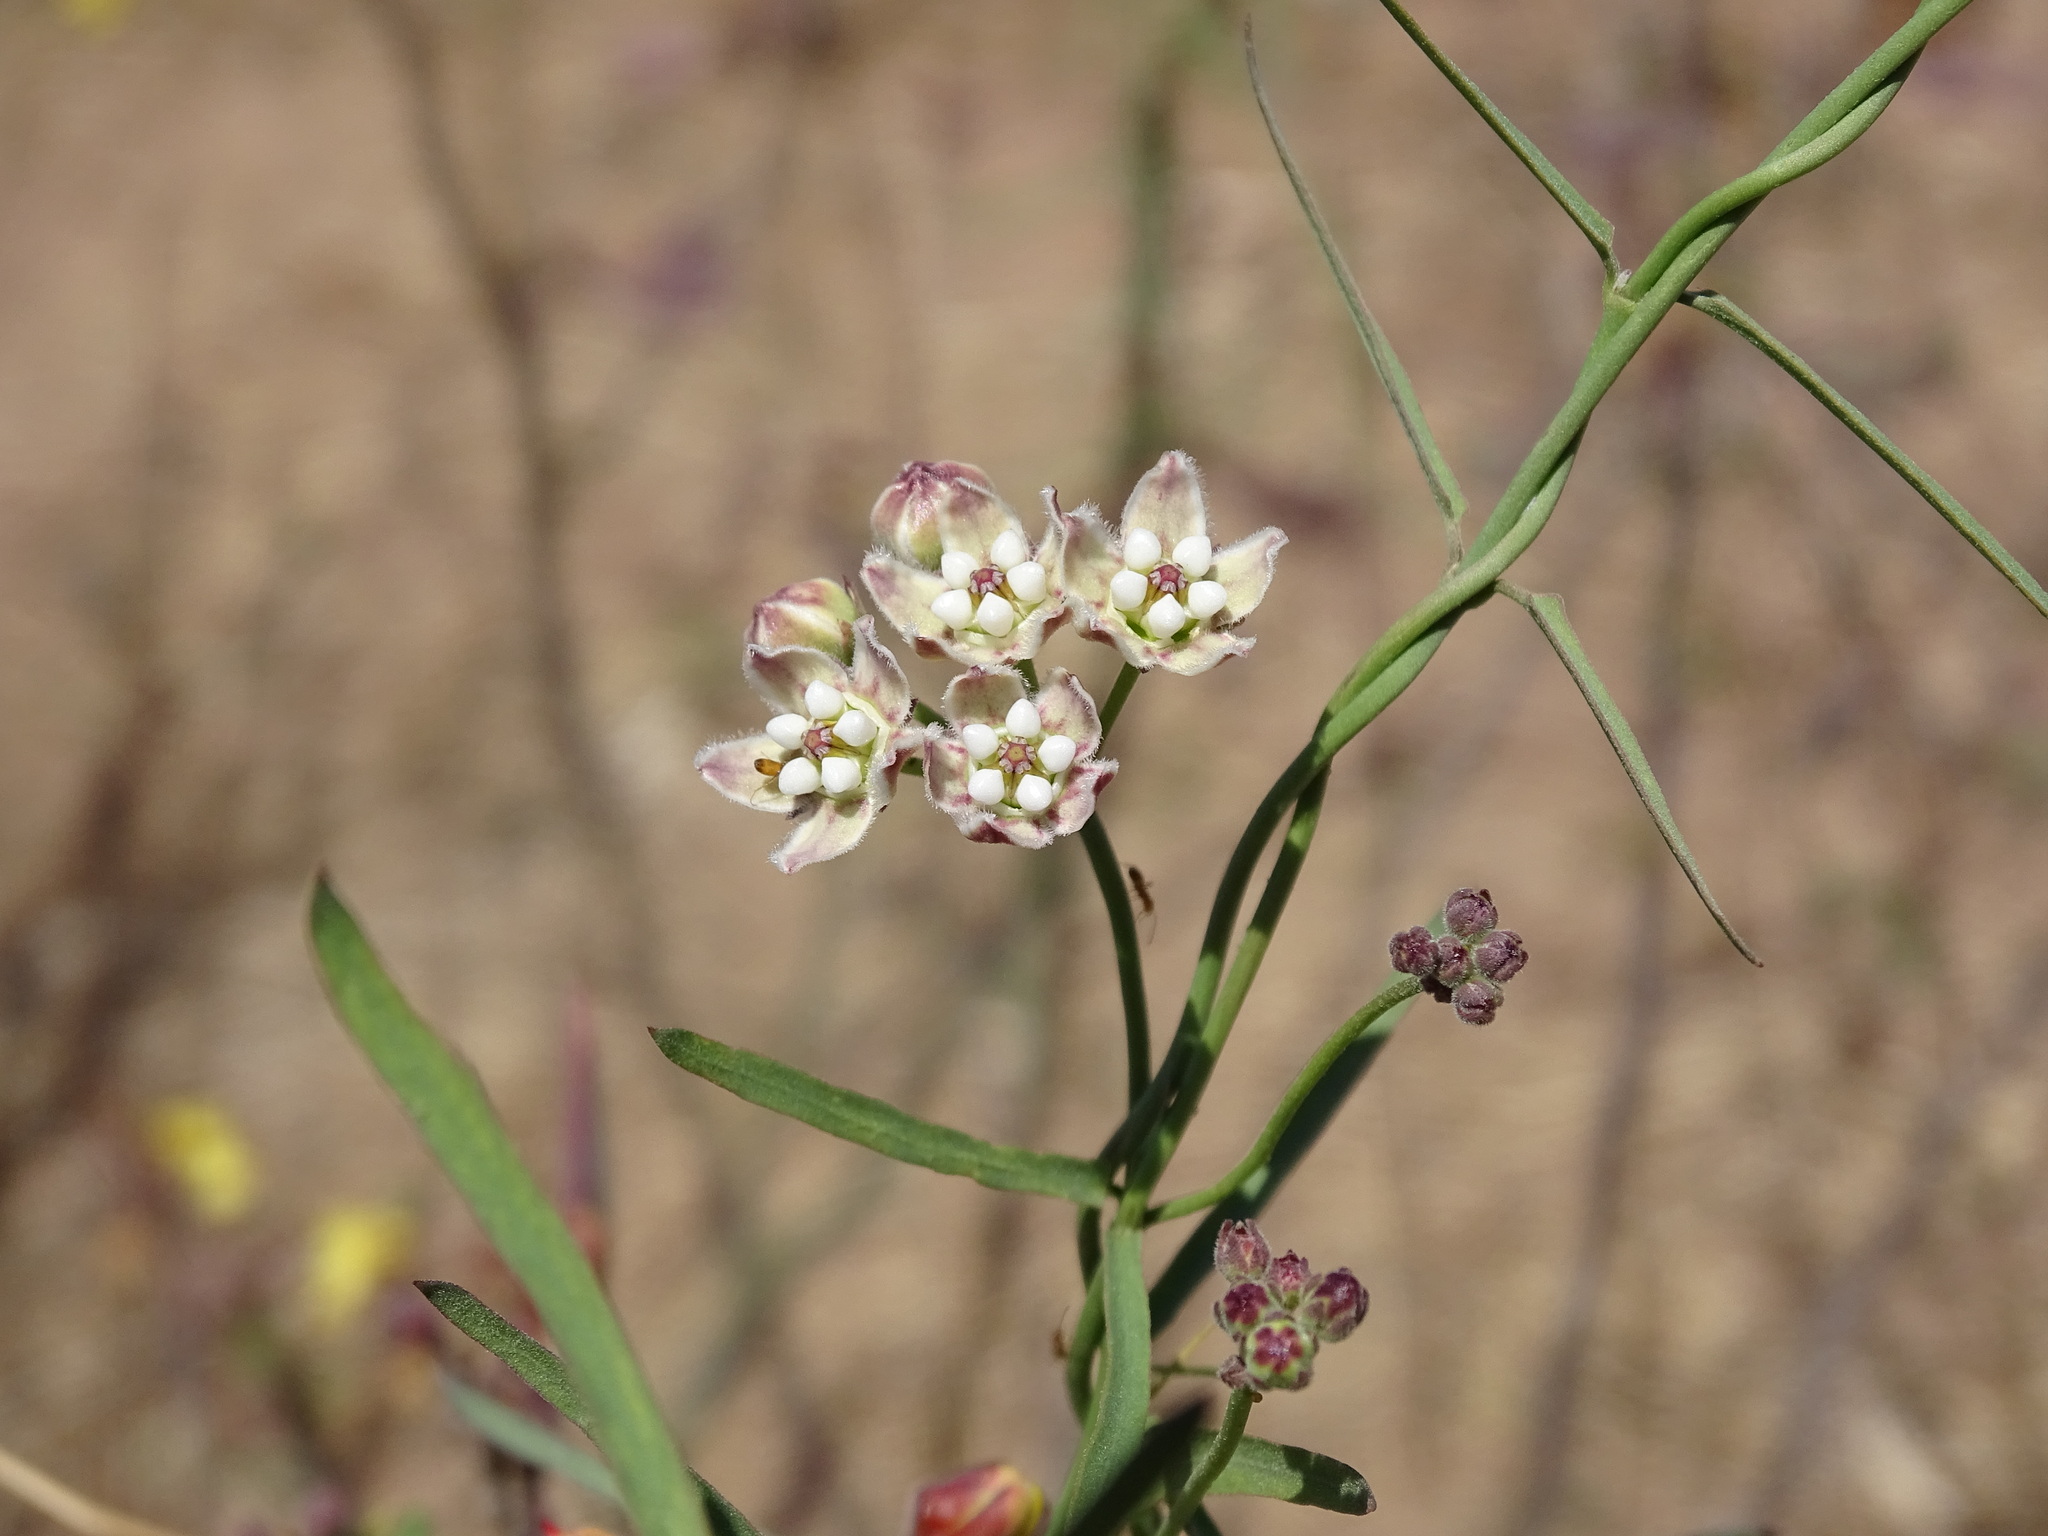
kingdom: Plantae
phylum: Tracheophyta
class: Magnoliopsida
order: Gentianales
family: Apocynaceae
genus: Funastrum
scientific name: Funastrum heterophyllum
